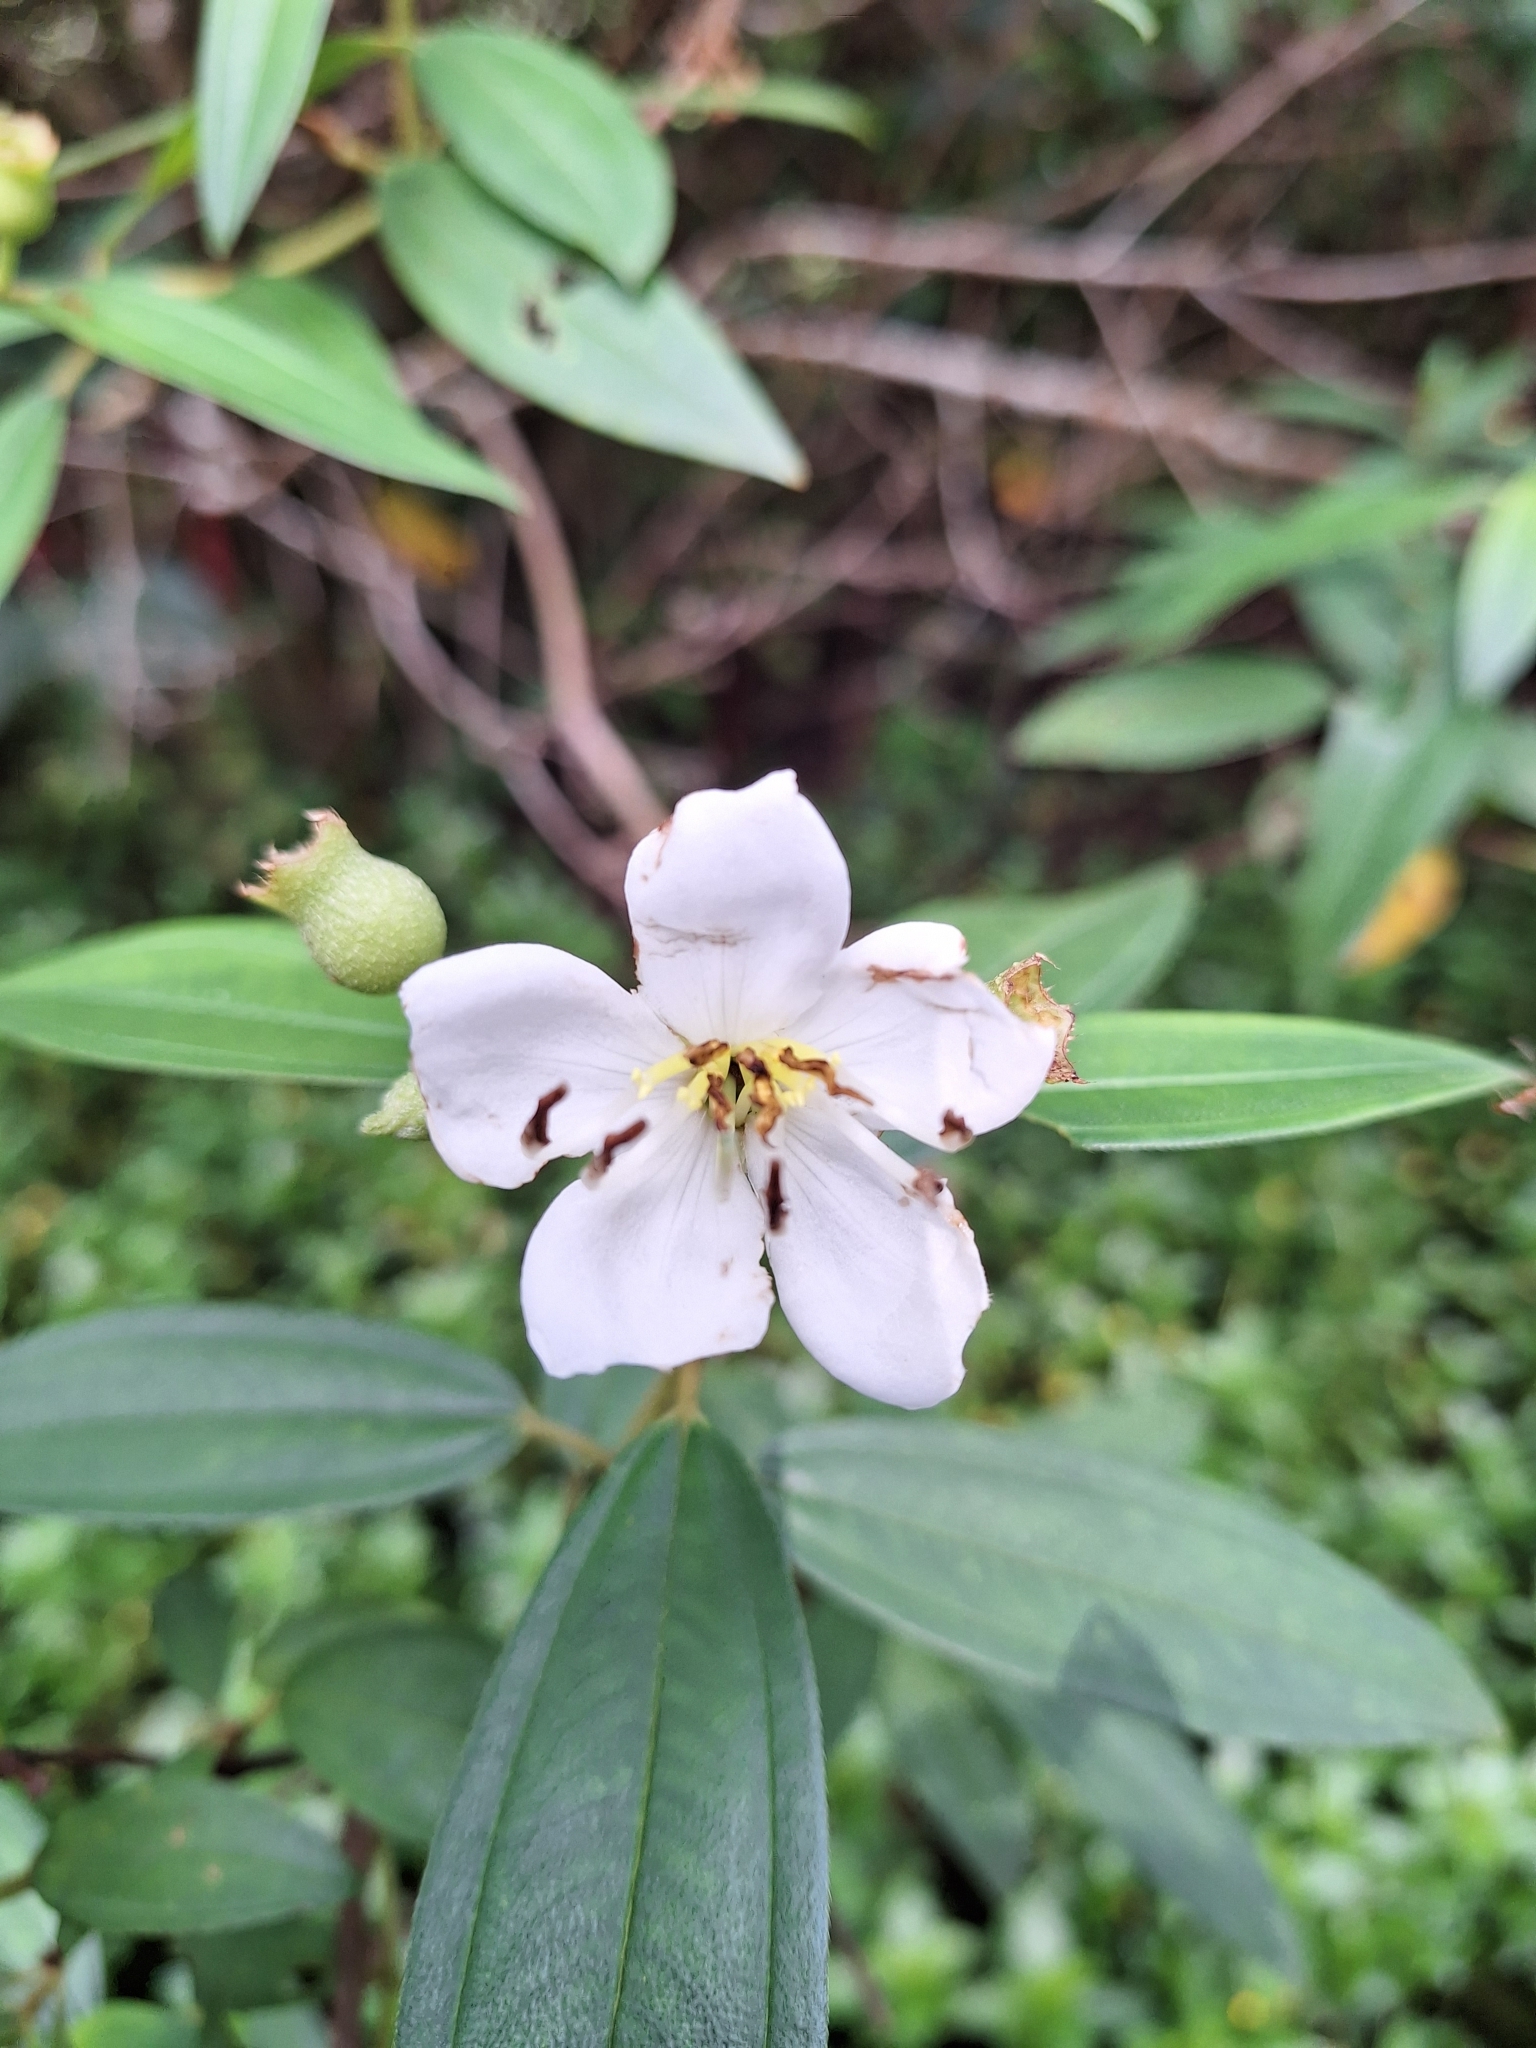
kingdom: Plantae
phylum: Tracheophyta
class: Magnoliopsida
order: Myrtales
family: Melastomataceae
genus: Melastoma
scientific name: Melastoma malabathricum
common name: Indian-rhododendron
